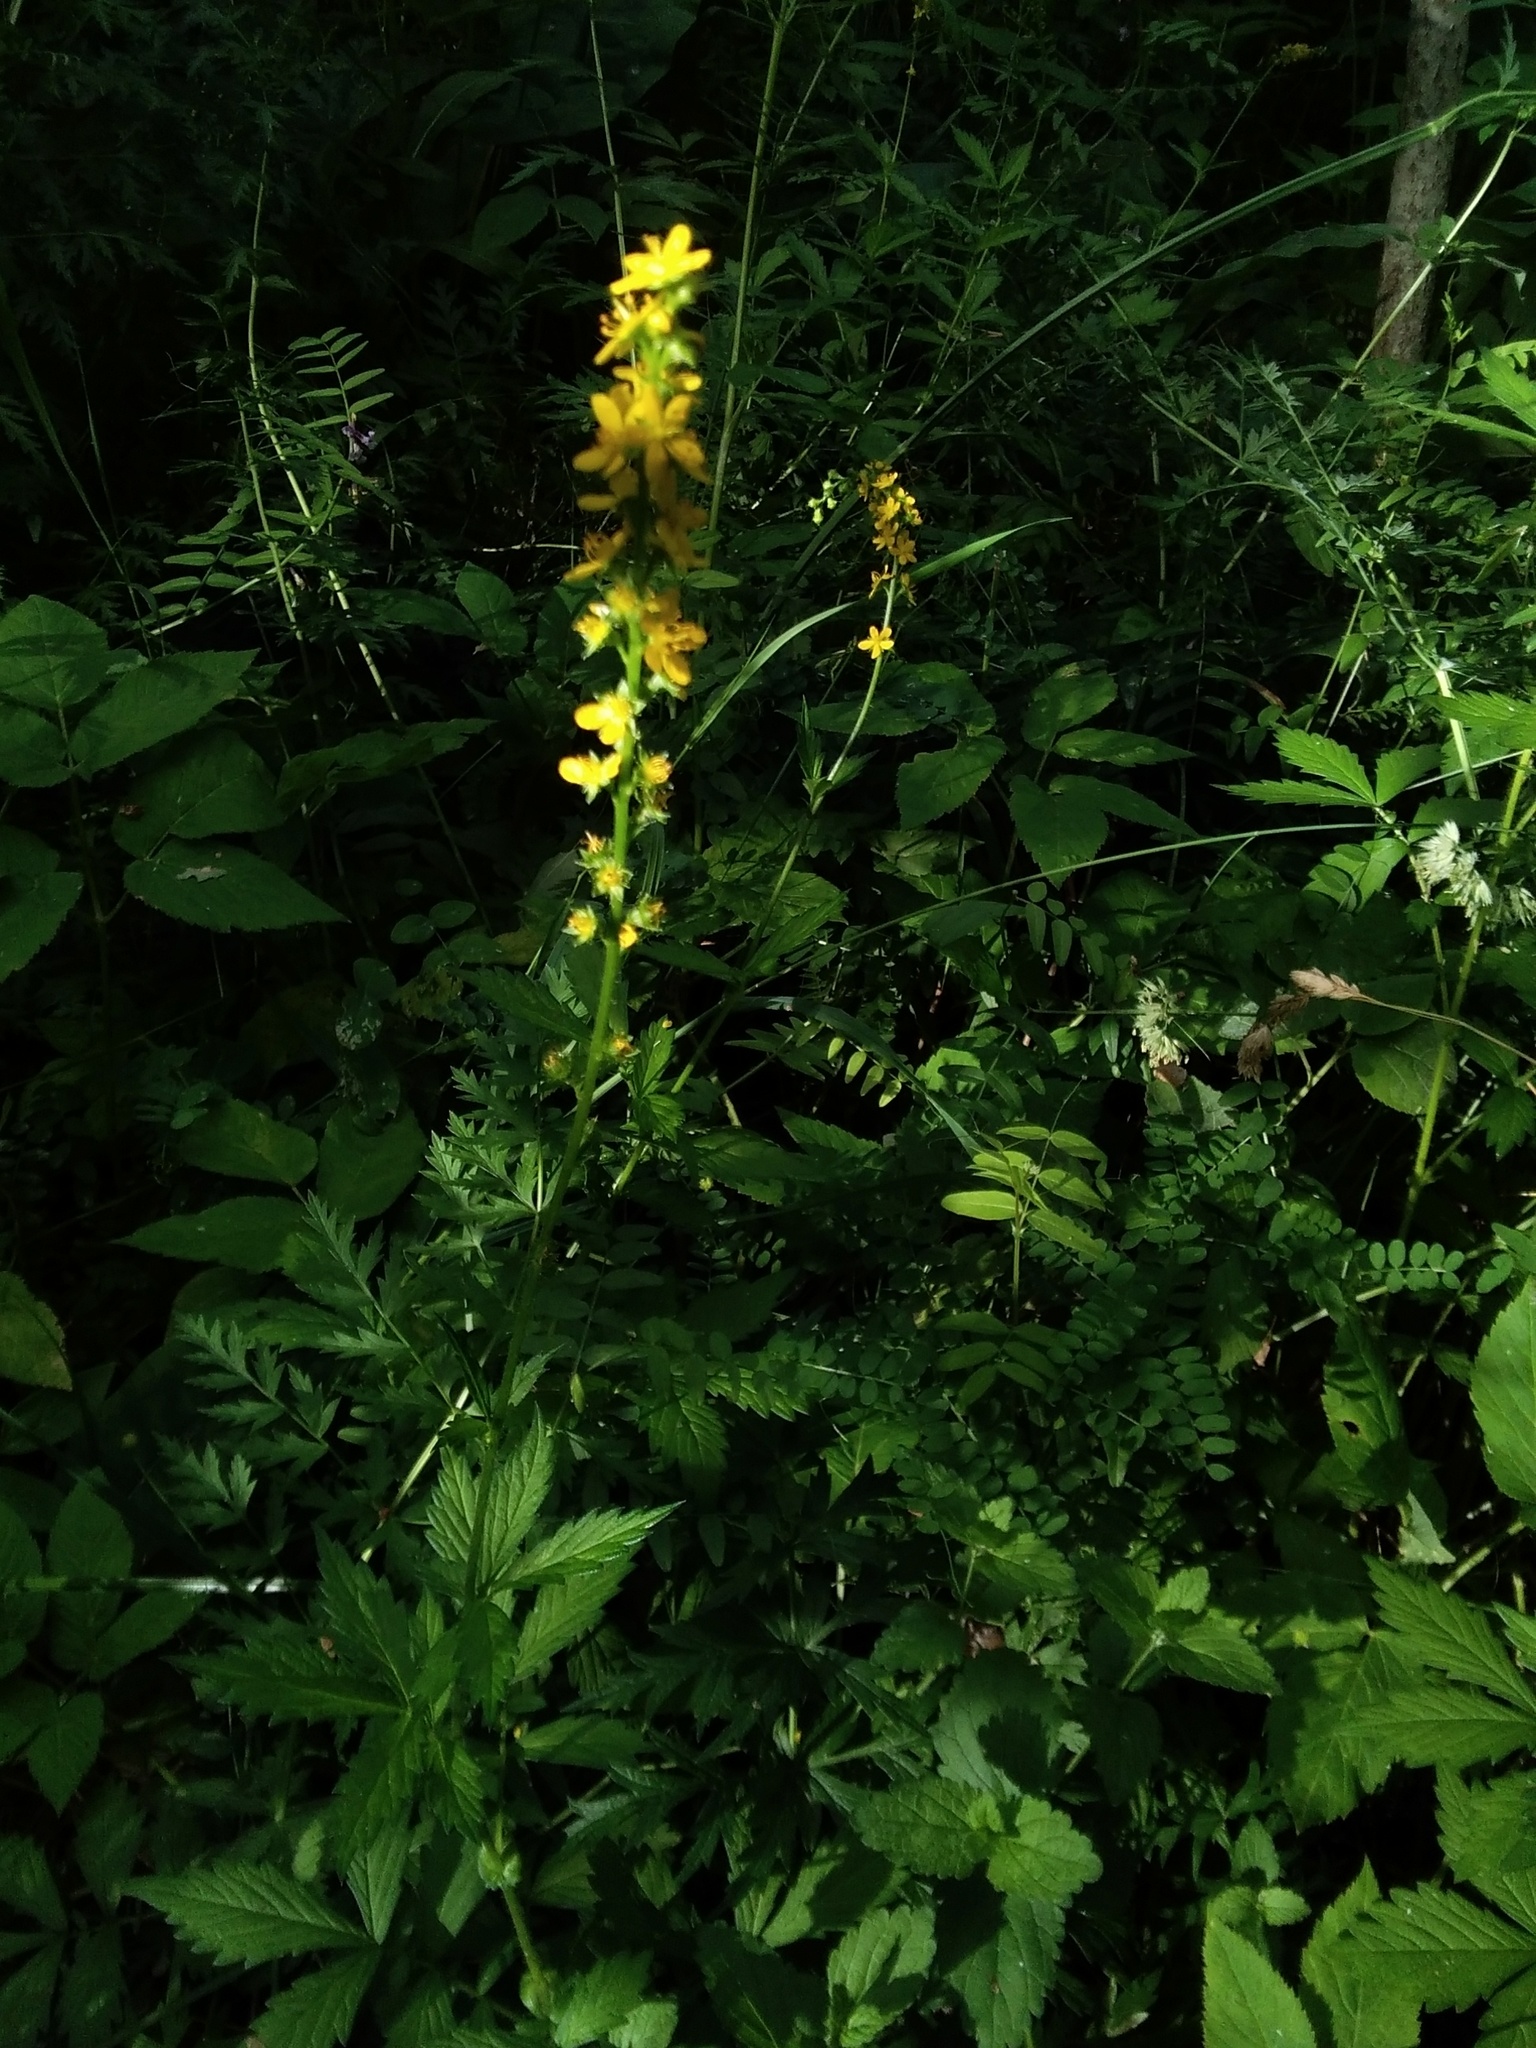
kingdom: Plantae
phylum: Tracheophyta
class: Magnoliopsida
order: Rosales
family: Rosaceae
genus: Agrimonia
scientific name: Agrimonia pilosa
